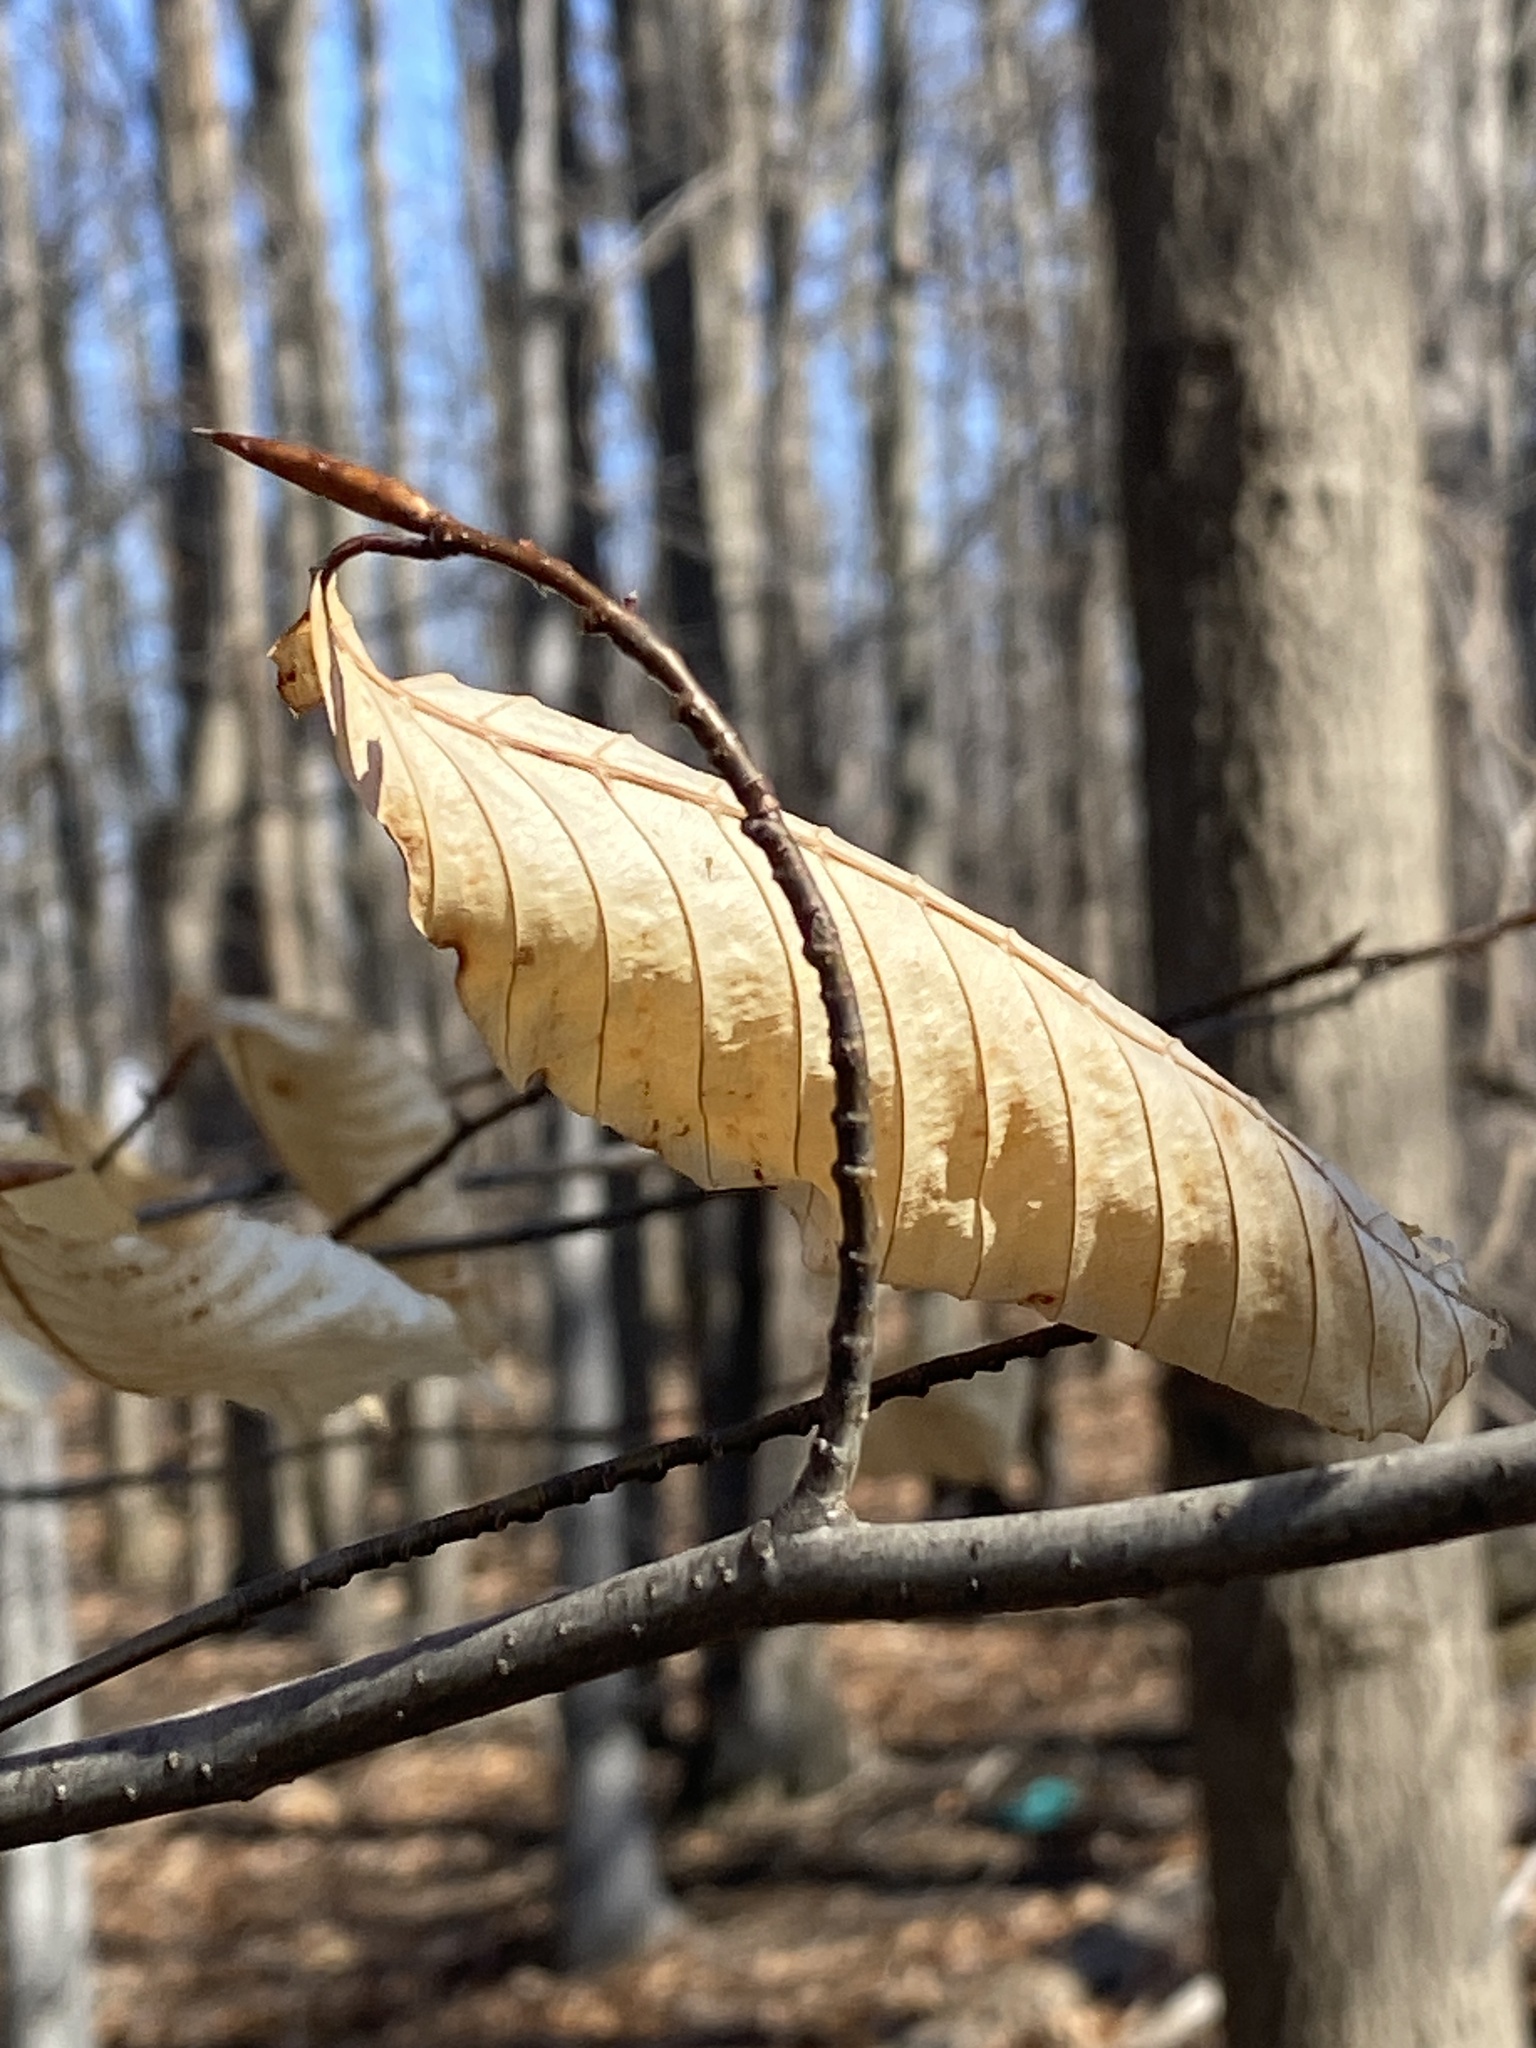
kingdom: Plantae
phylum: Tracheophyta
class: Magnoliopsida
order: Fagales
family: Fagaceae
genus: Fagus
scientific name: Fagus grandifolia
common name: American beech
